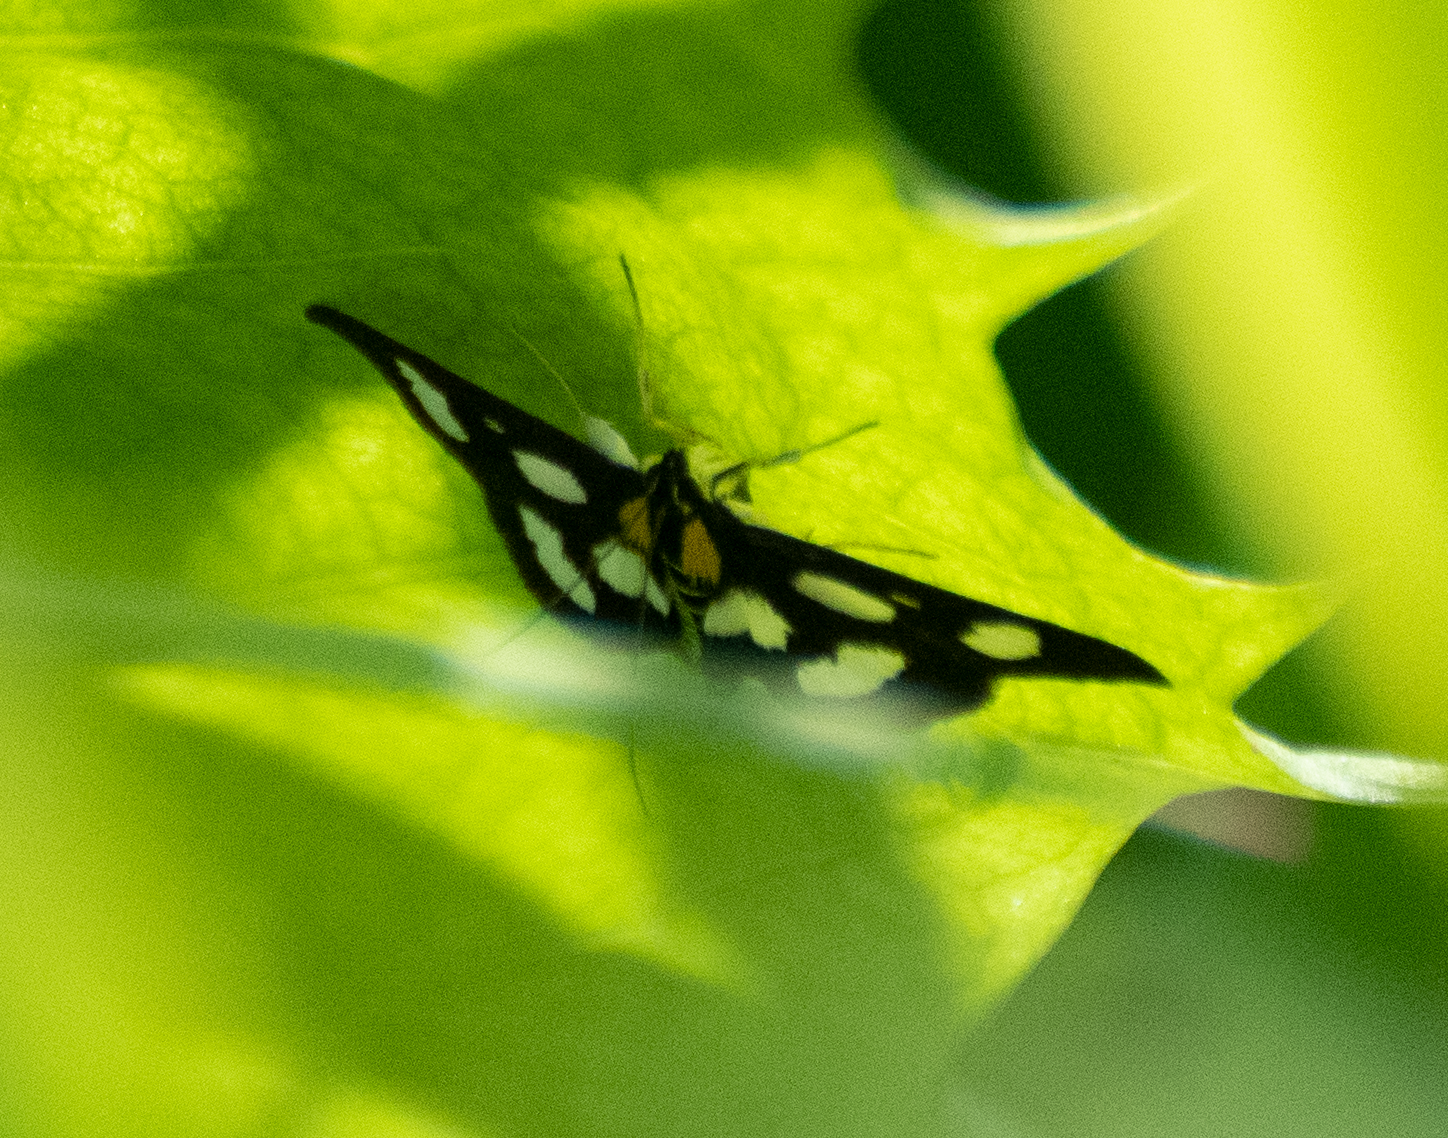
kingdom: Animalia
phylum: Arthropoda
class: Insecta
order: Lepidoptera
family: Crambidae
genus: Anania
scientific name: Anania funebris
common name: White-spotted sable moth
